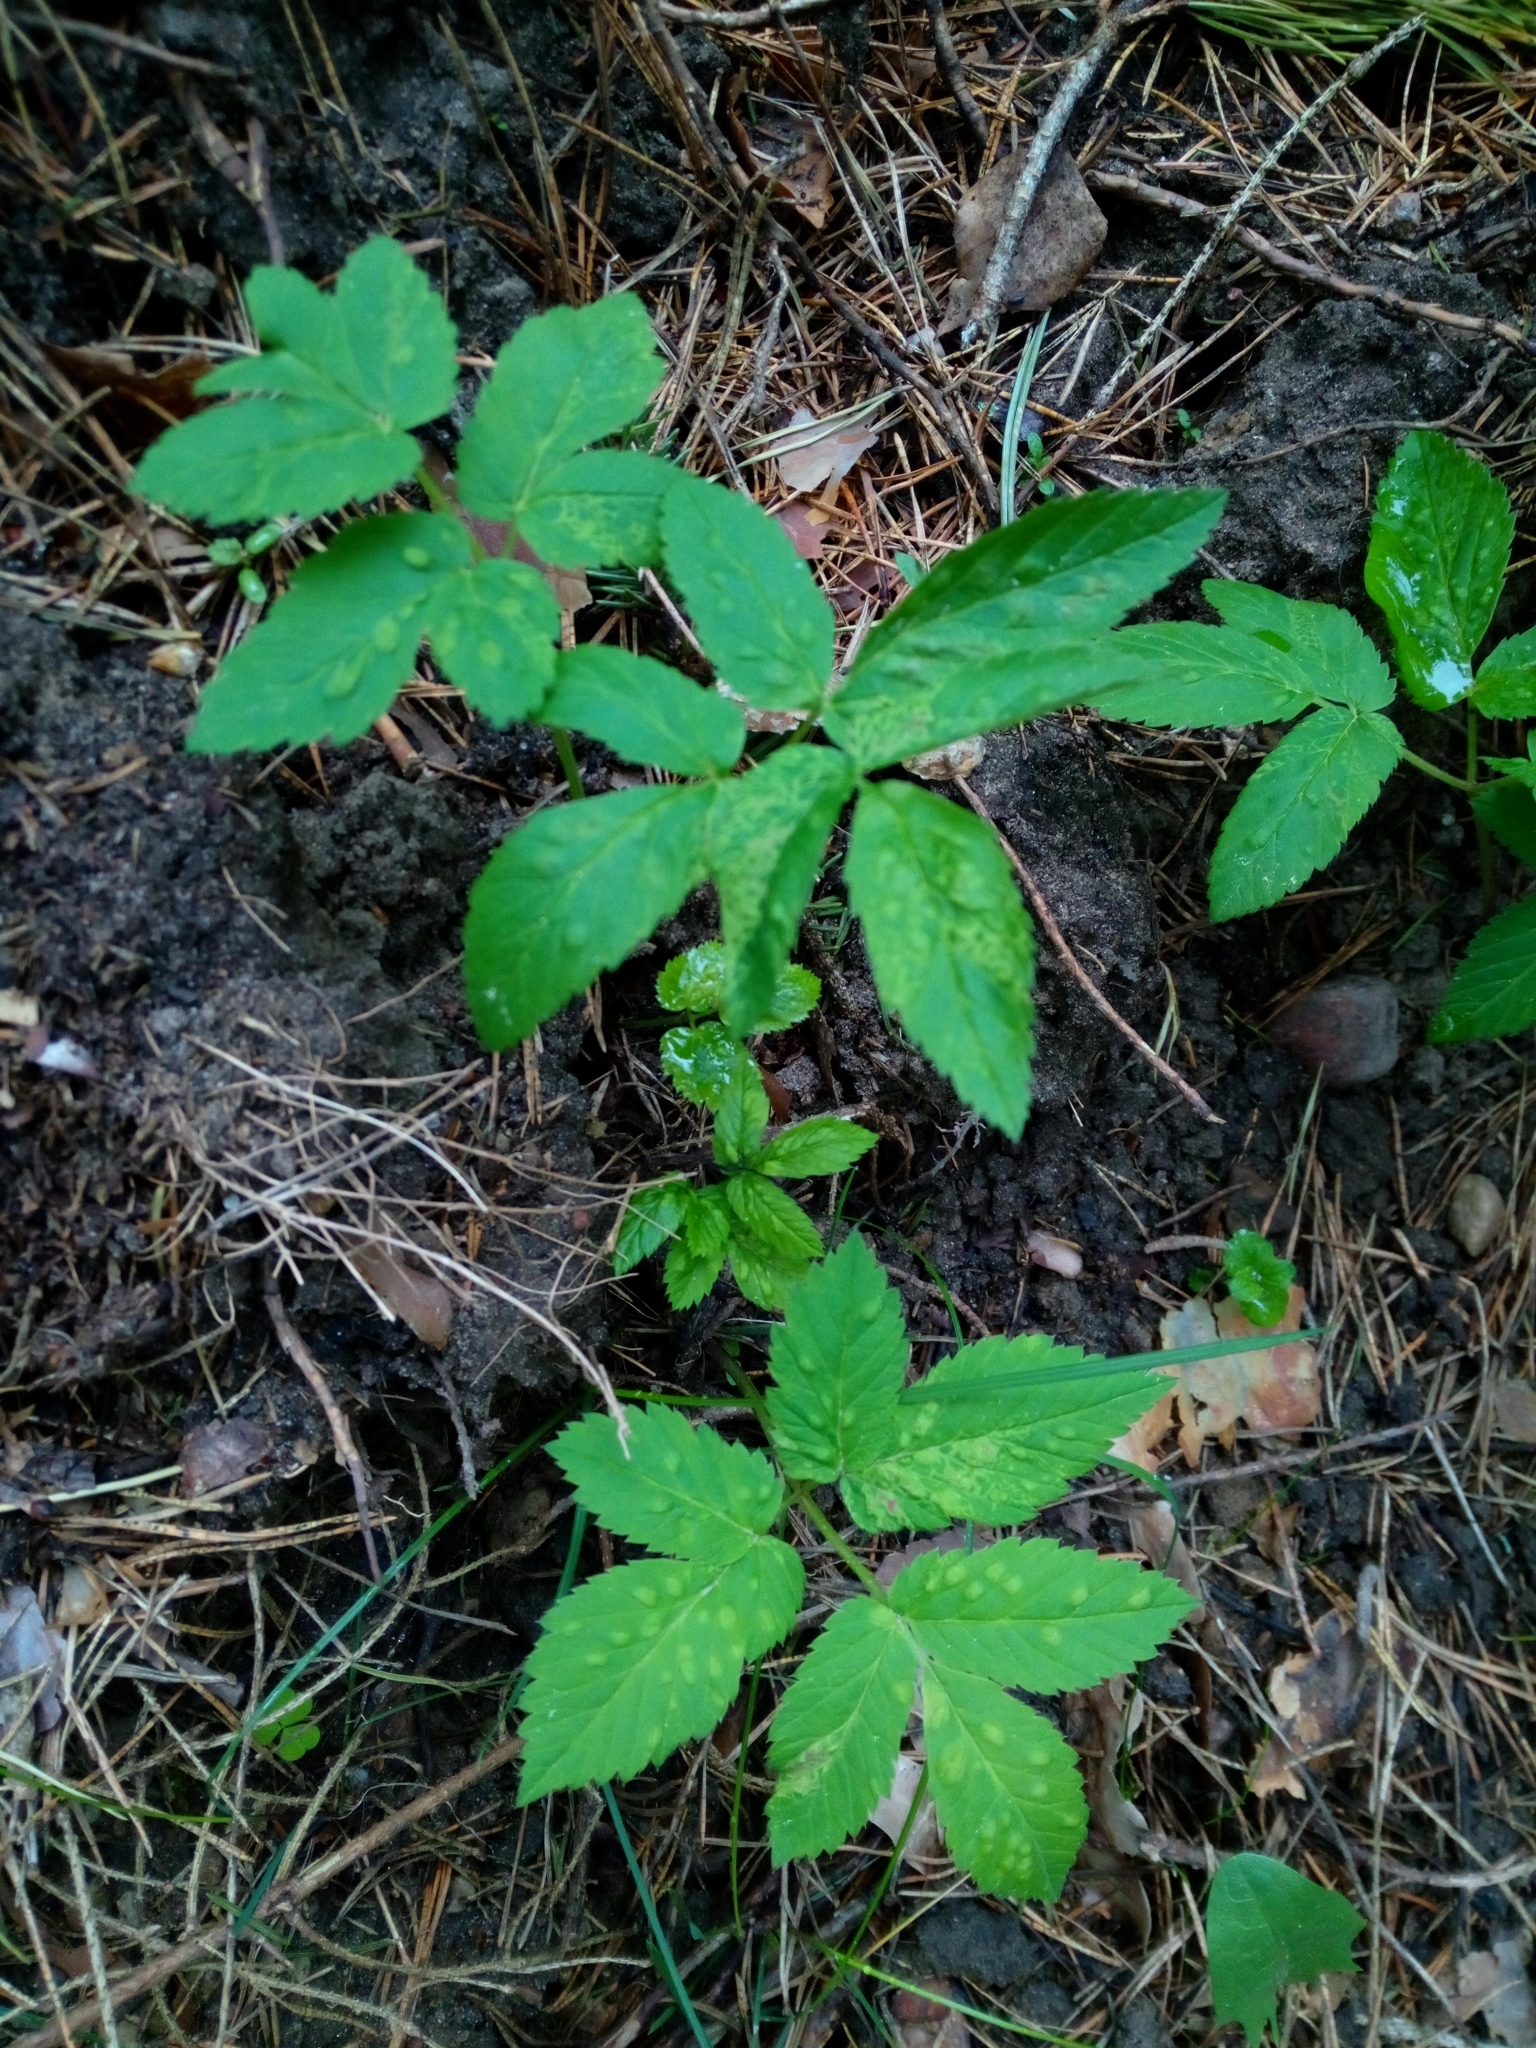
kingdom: Animalia
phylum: Arthropoda
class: Insecta
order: Hemiptera
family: Triozidae
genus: Trioza
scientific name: Trioza flavipennis
